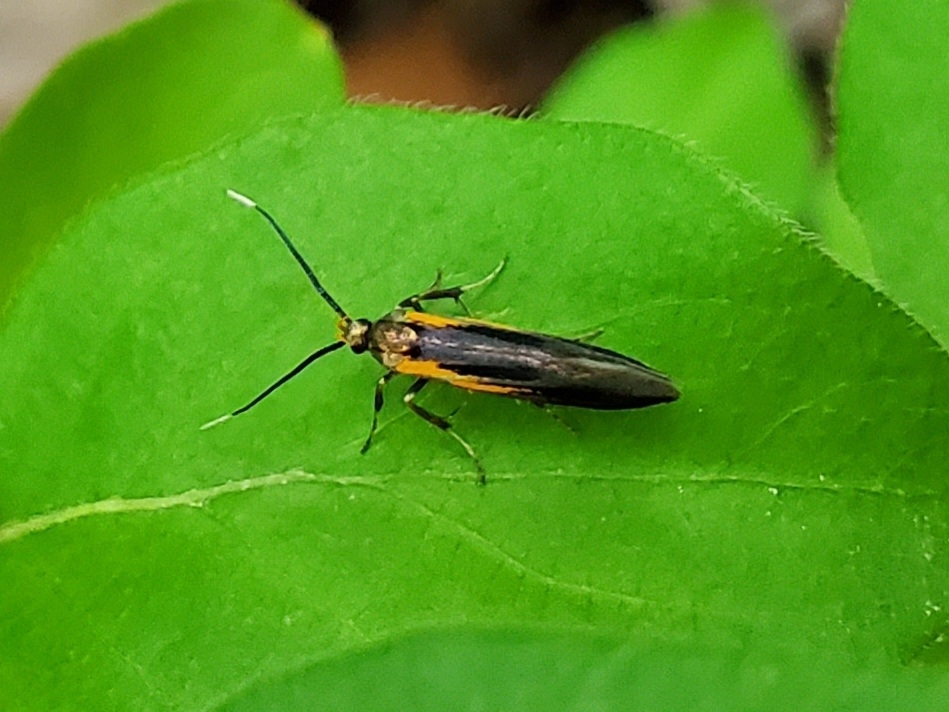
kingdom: Animalia
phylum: Arthropoda
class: Insecta
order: Lepidoptera
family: Oecophoridae
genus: Mathildana
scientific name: Mathildana newmanella
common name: Newman's mathildana moth
